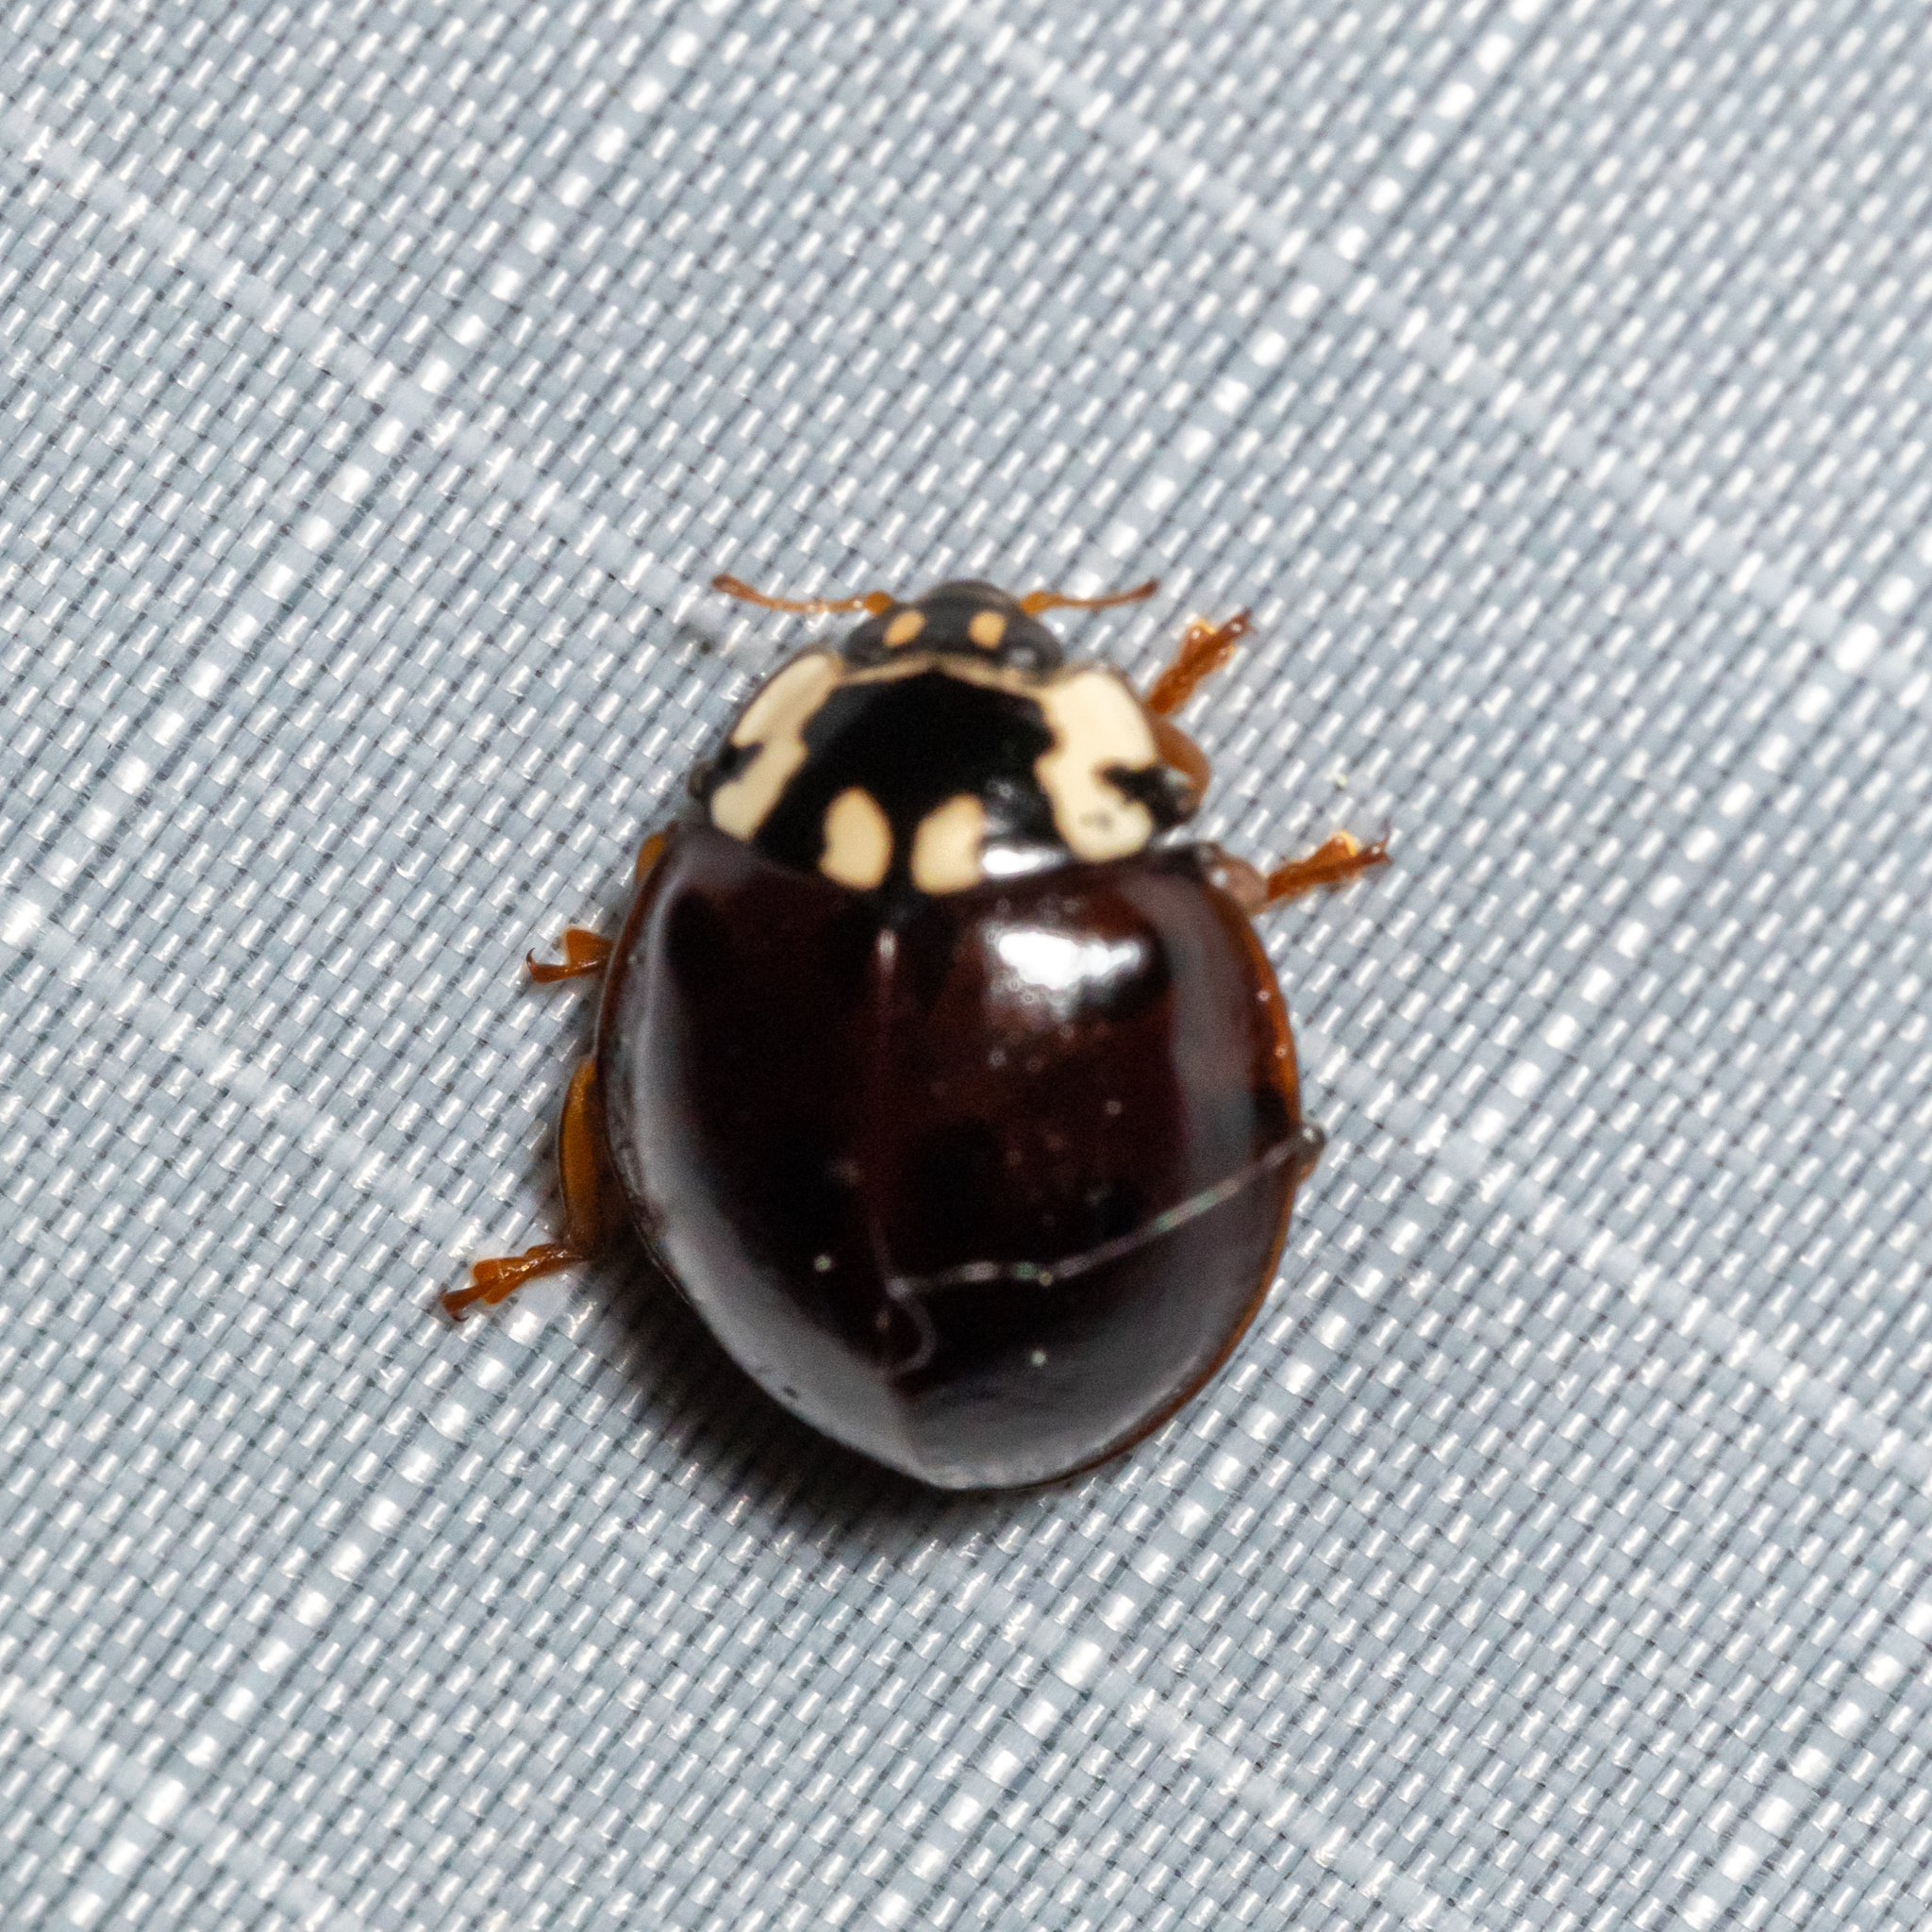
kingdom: Animalia
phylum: Arthropoda
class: Insecta
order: Coleoptera
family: Coccinellidae
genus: Anatis
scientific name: Anatis labiculata
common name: Fifteen-spotted lady beetle
